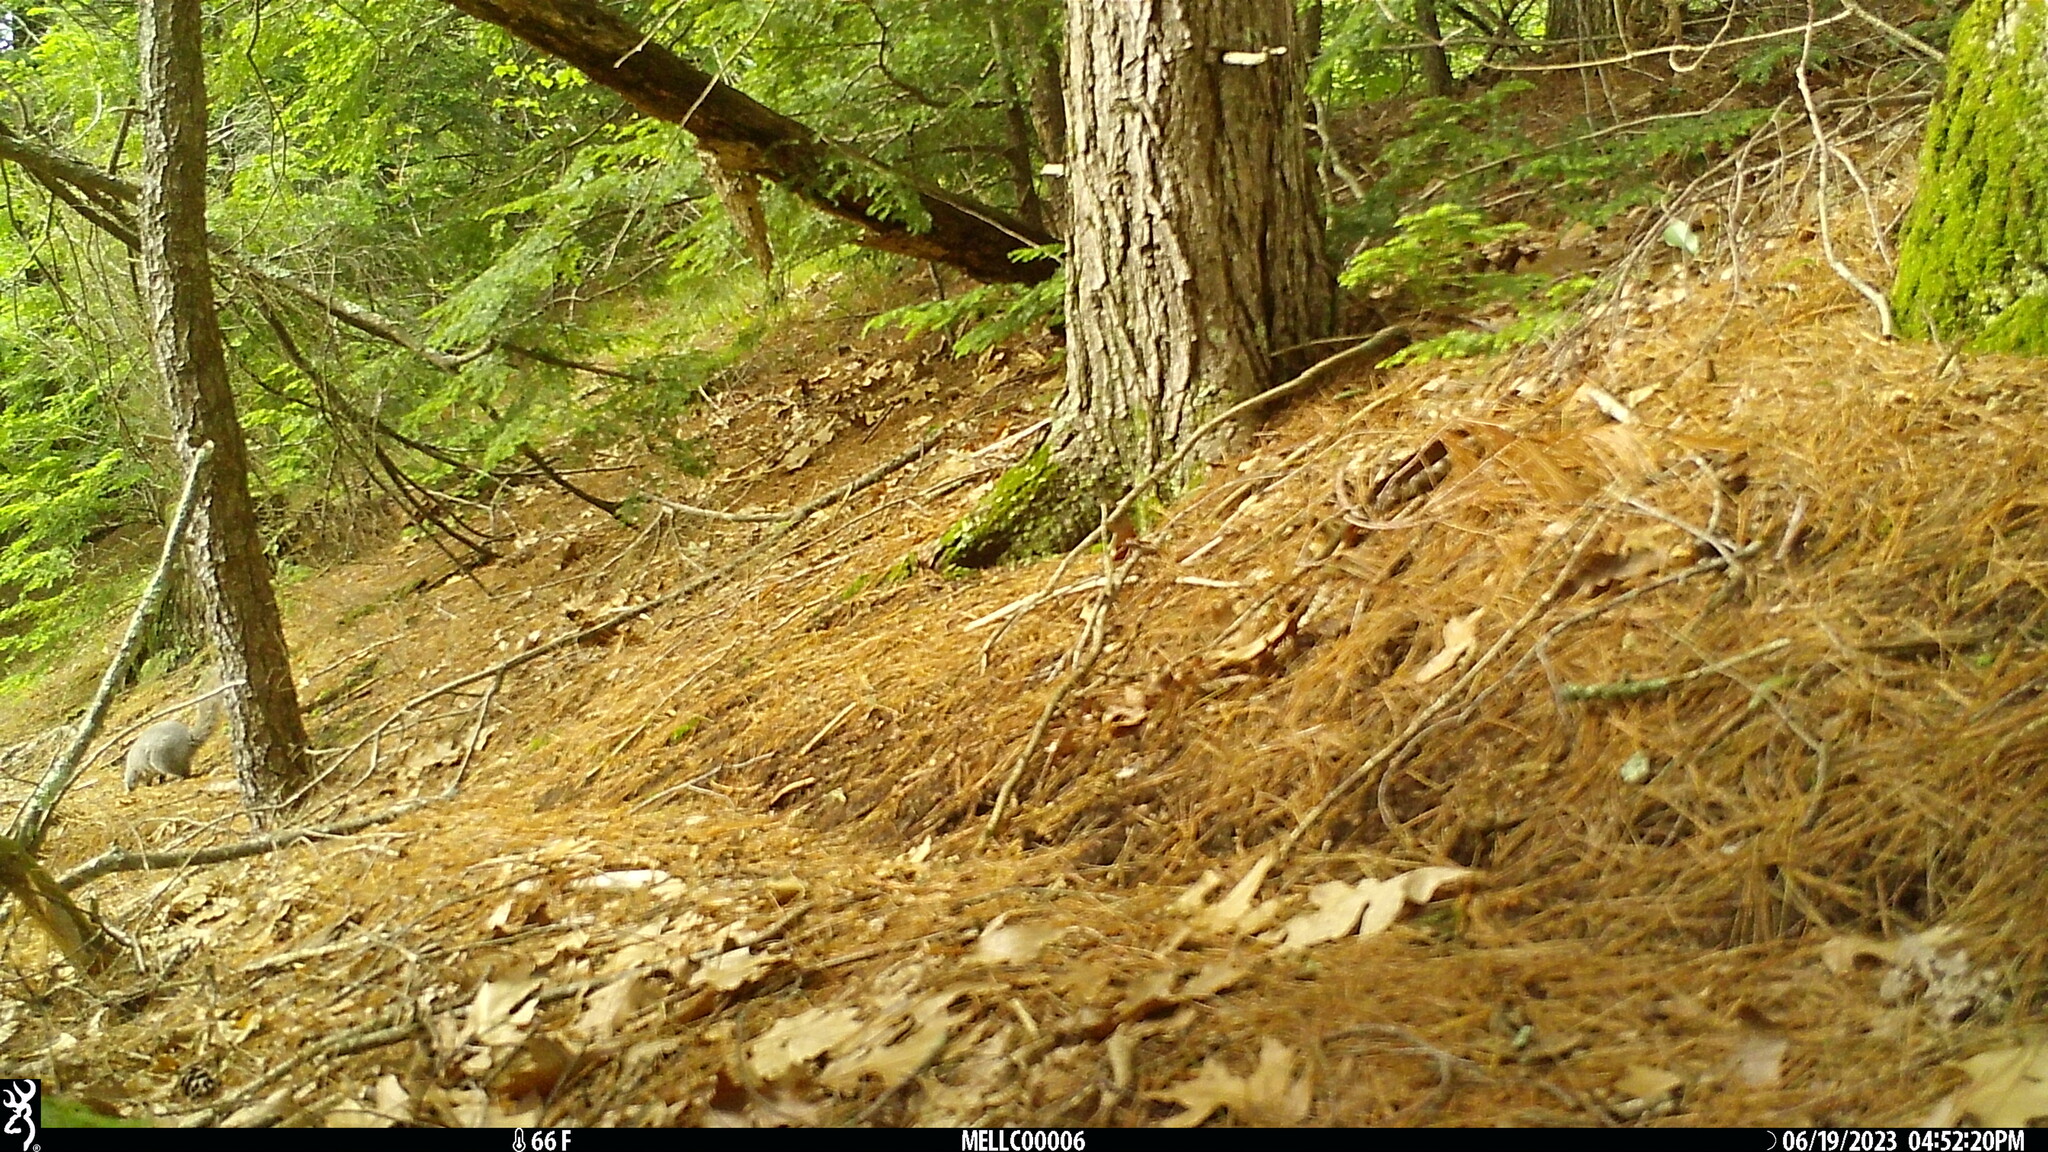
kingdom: Animalia
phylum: Chordata
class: Mammalia
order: Rodentia
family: Sciuridae
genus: Sciurus
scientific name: Sciurus carolinensis
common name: Eastern gray squirrel
